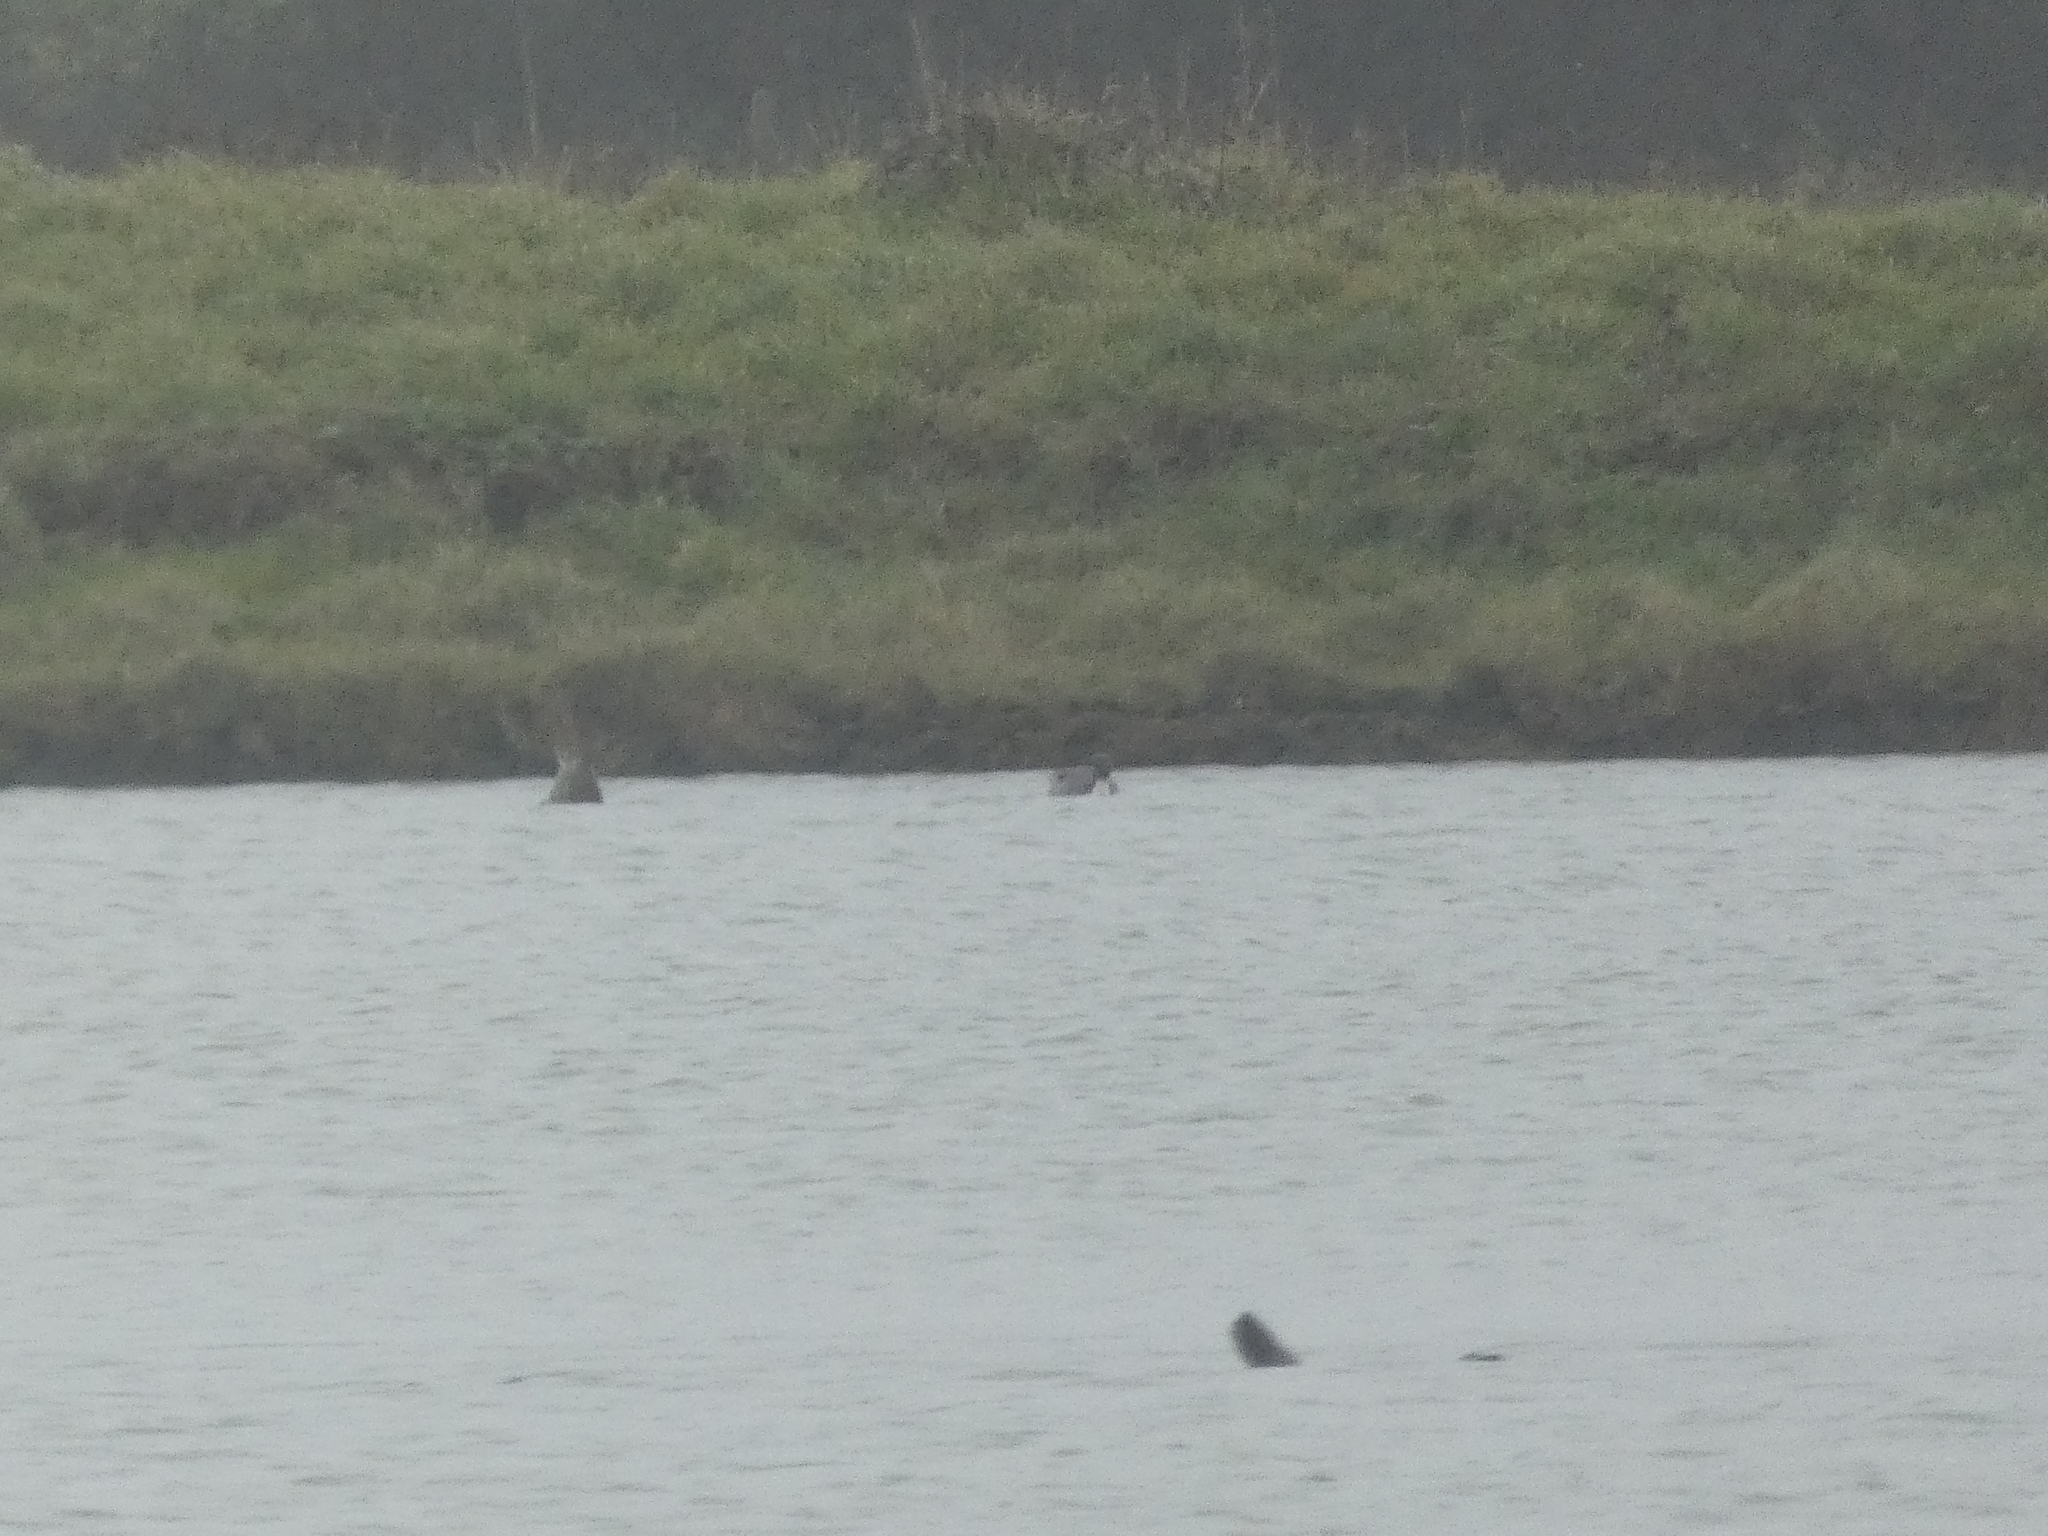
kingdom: Animalia
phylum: Chordata
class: Aves
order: Anseriformes
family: Anatidae
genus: Anas
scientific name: Anas acuta
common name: Northern pintail
